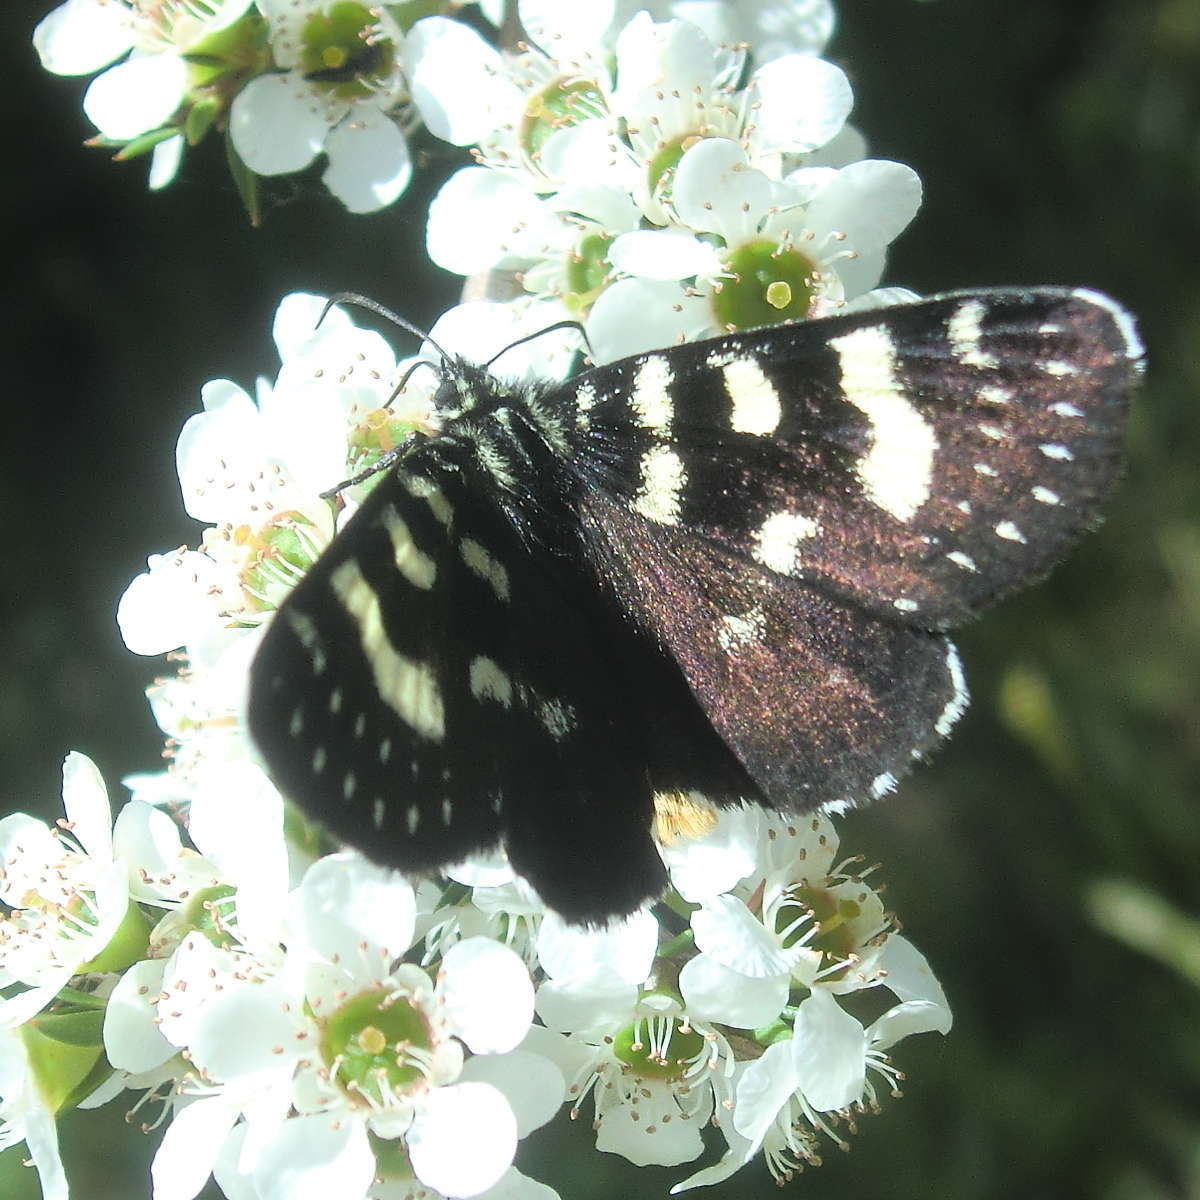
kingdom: Animalia
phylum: Arthropoda
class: Insecta
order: Lepidoptera
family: Noctuidae
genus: Phalaenoides
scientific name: Phalaenoides tristifica
